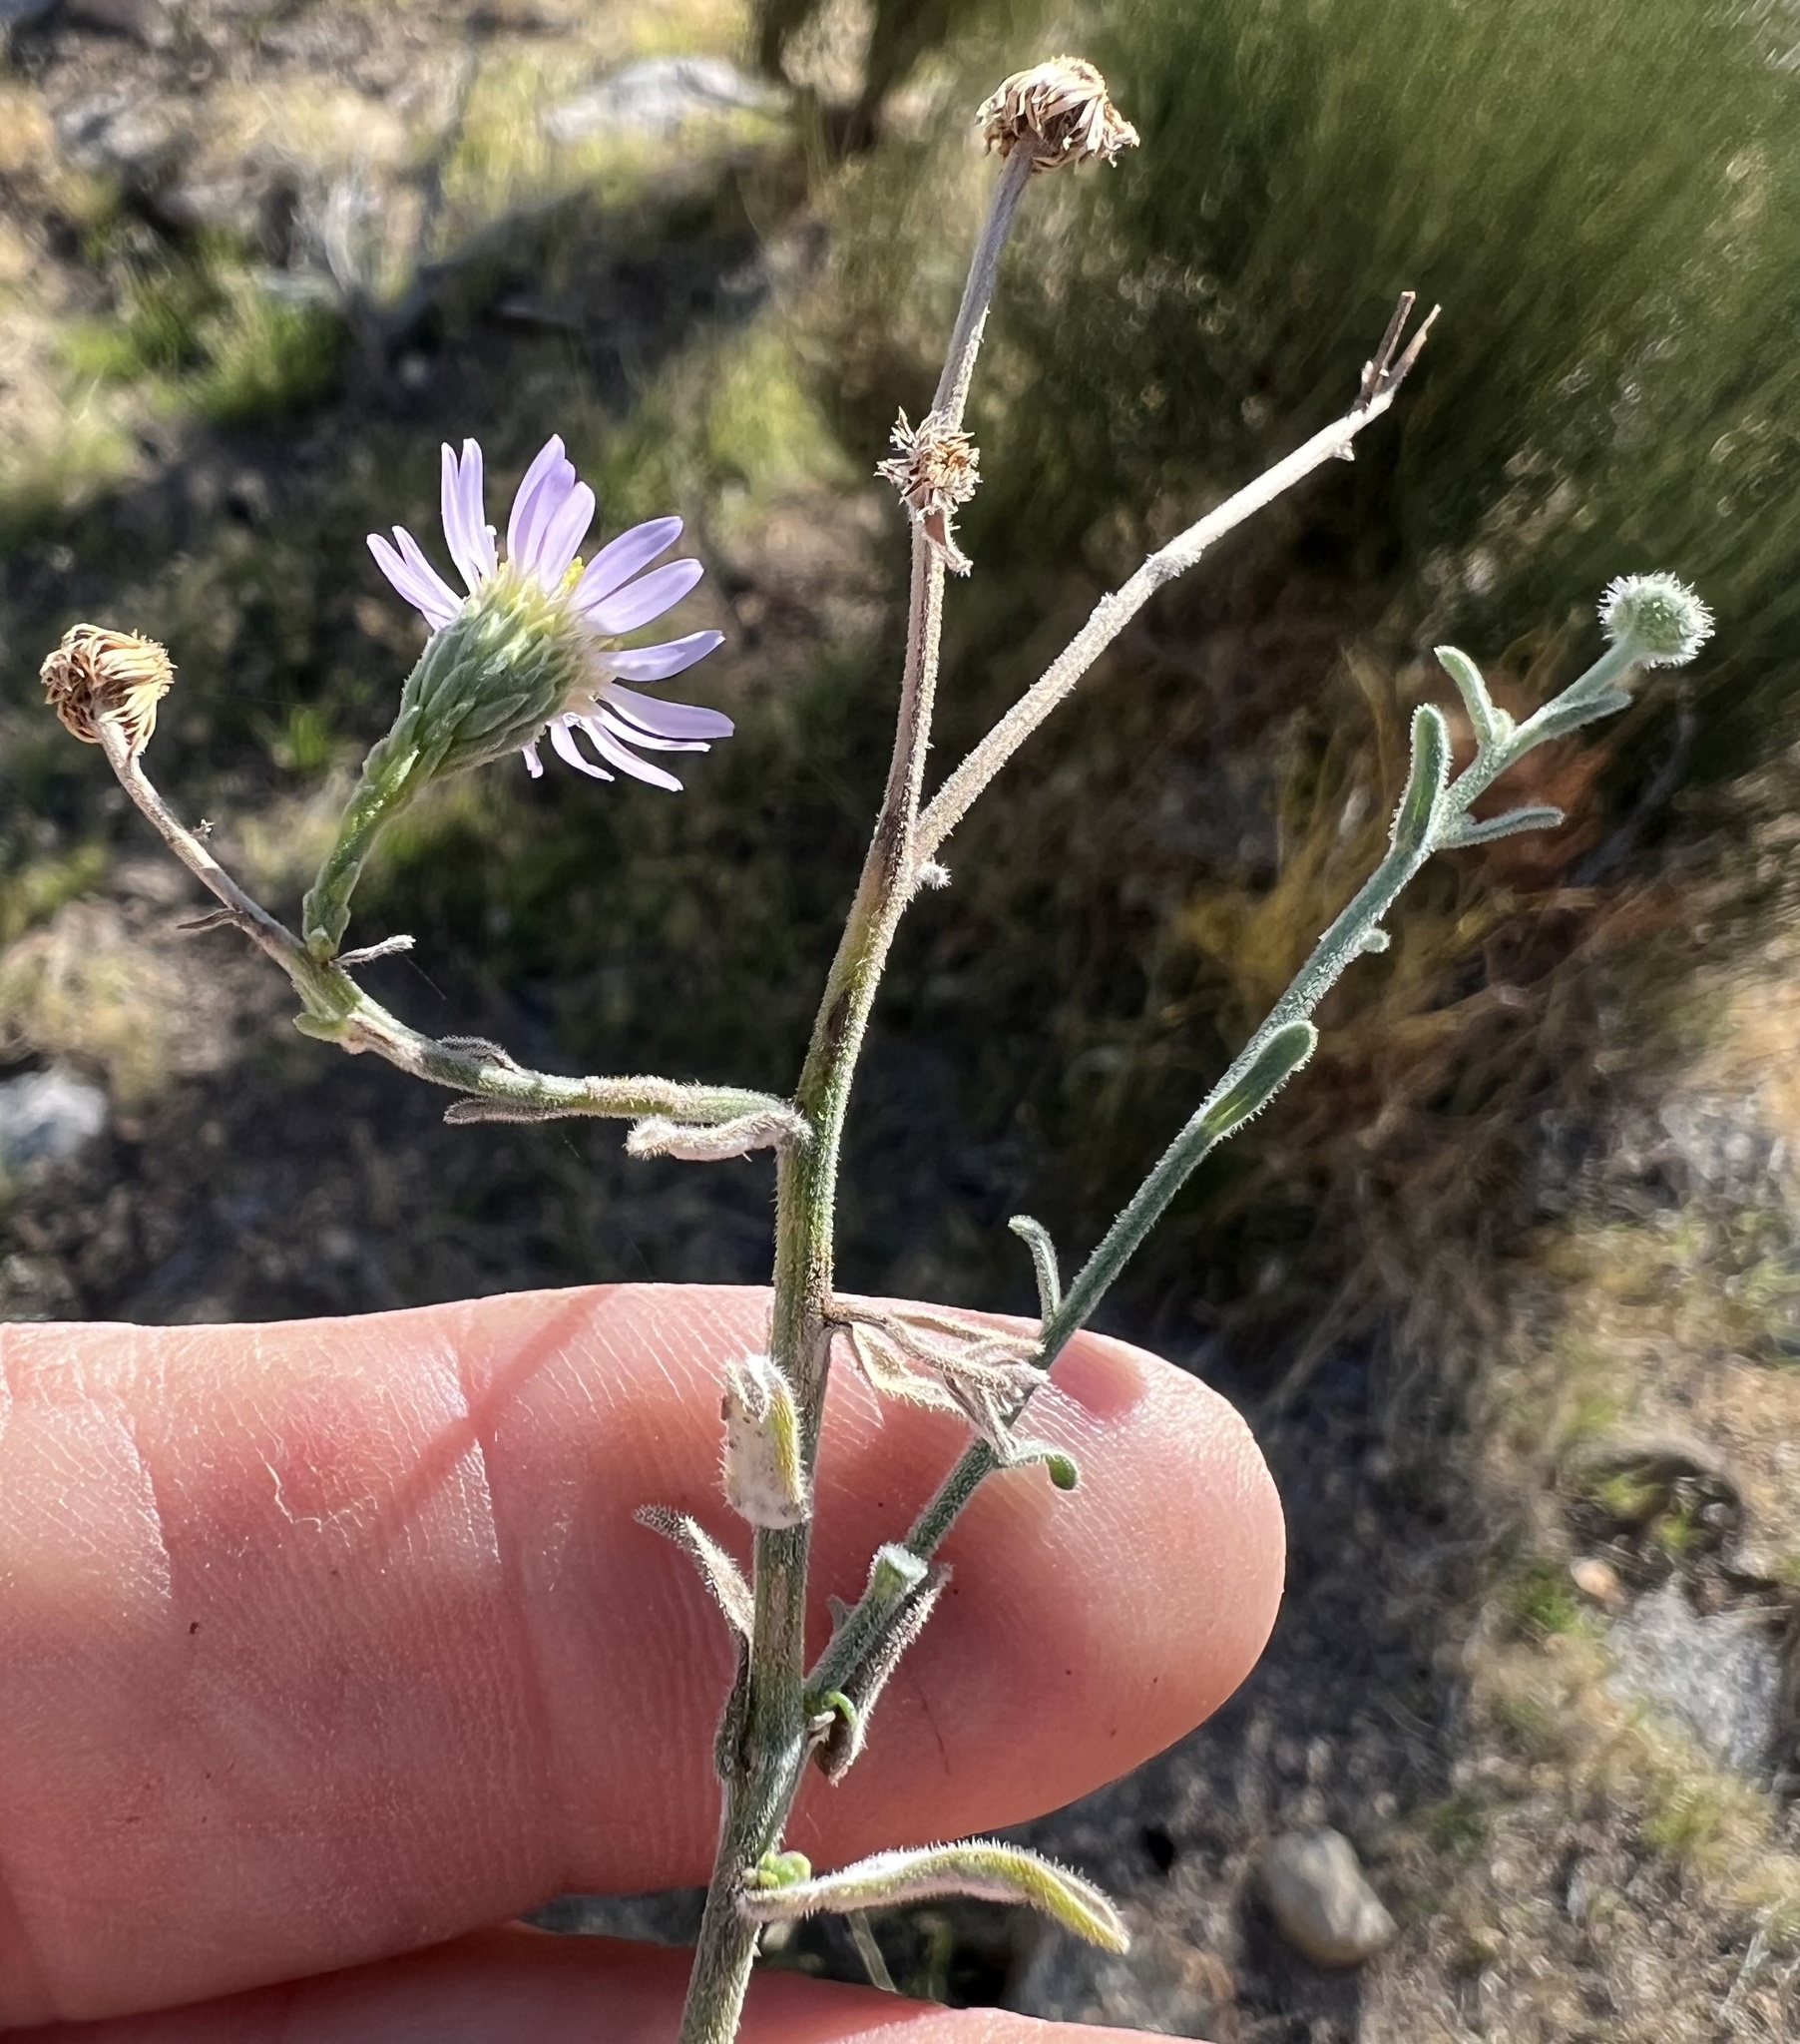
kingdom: Plantae
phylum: Tracheophyta
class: Magnoliopsida
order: Asterales
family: Asteraceae
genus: Erigeron
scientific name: Erigeron breweri
